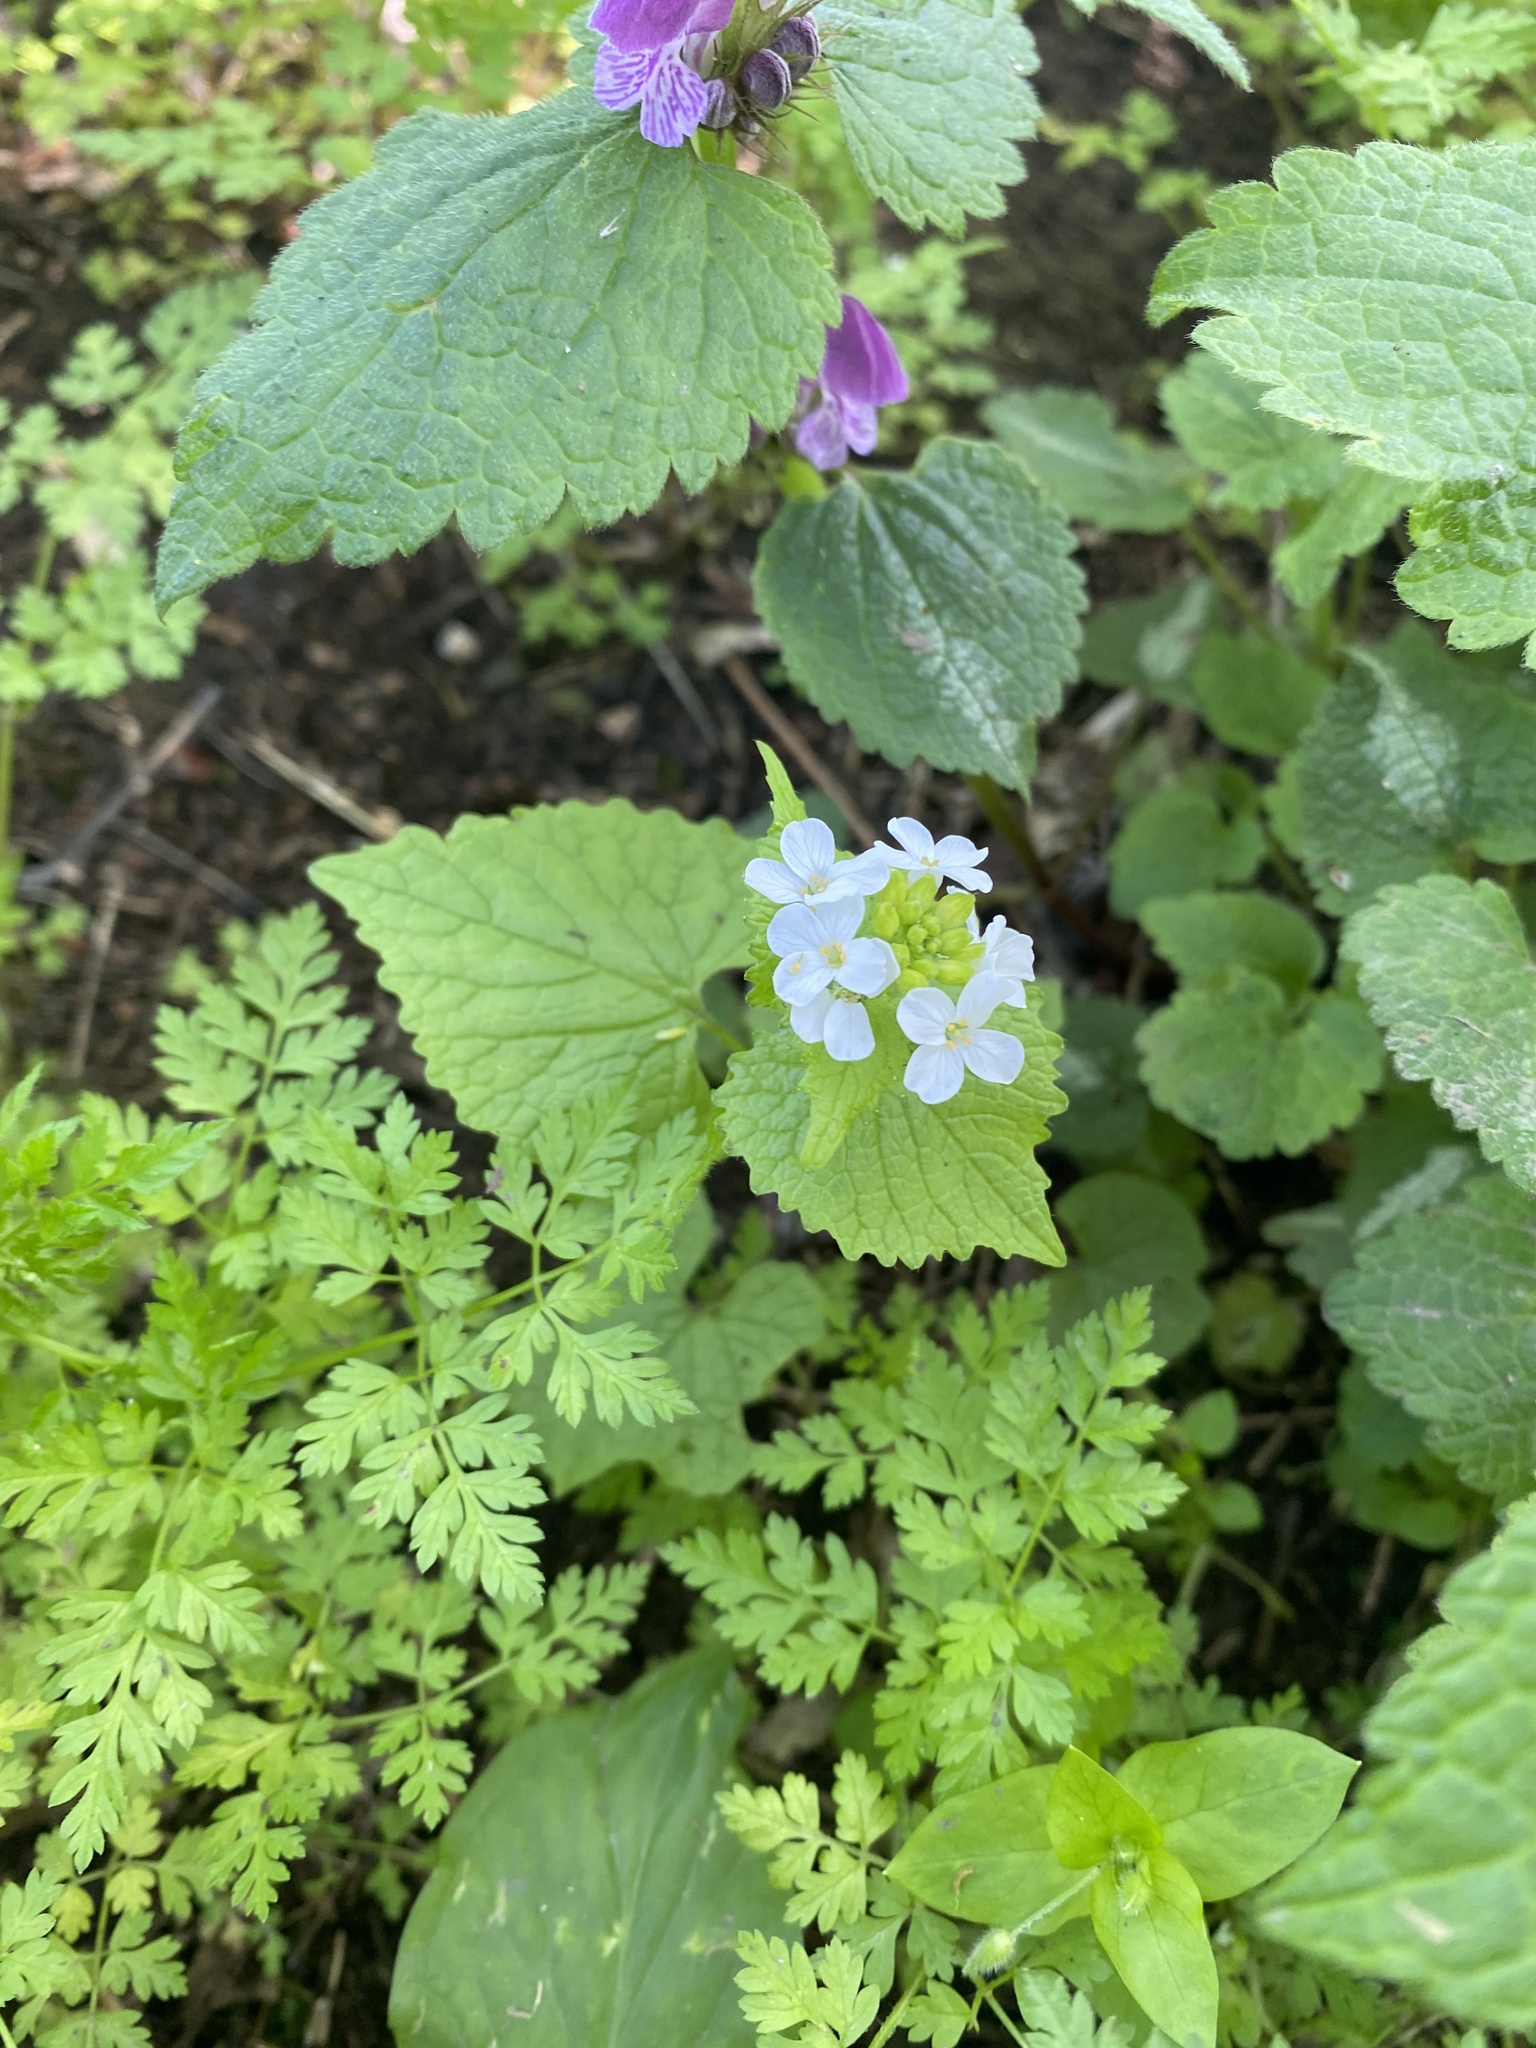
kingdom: Plantae
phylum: Tracheophyta
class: Magnoliopsida
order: Brassicales
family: Brassicaceae
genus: Alliaria
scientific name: Alliaria petiolata
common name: Garlic mustard
